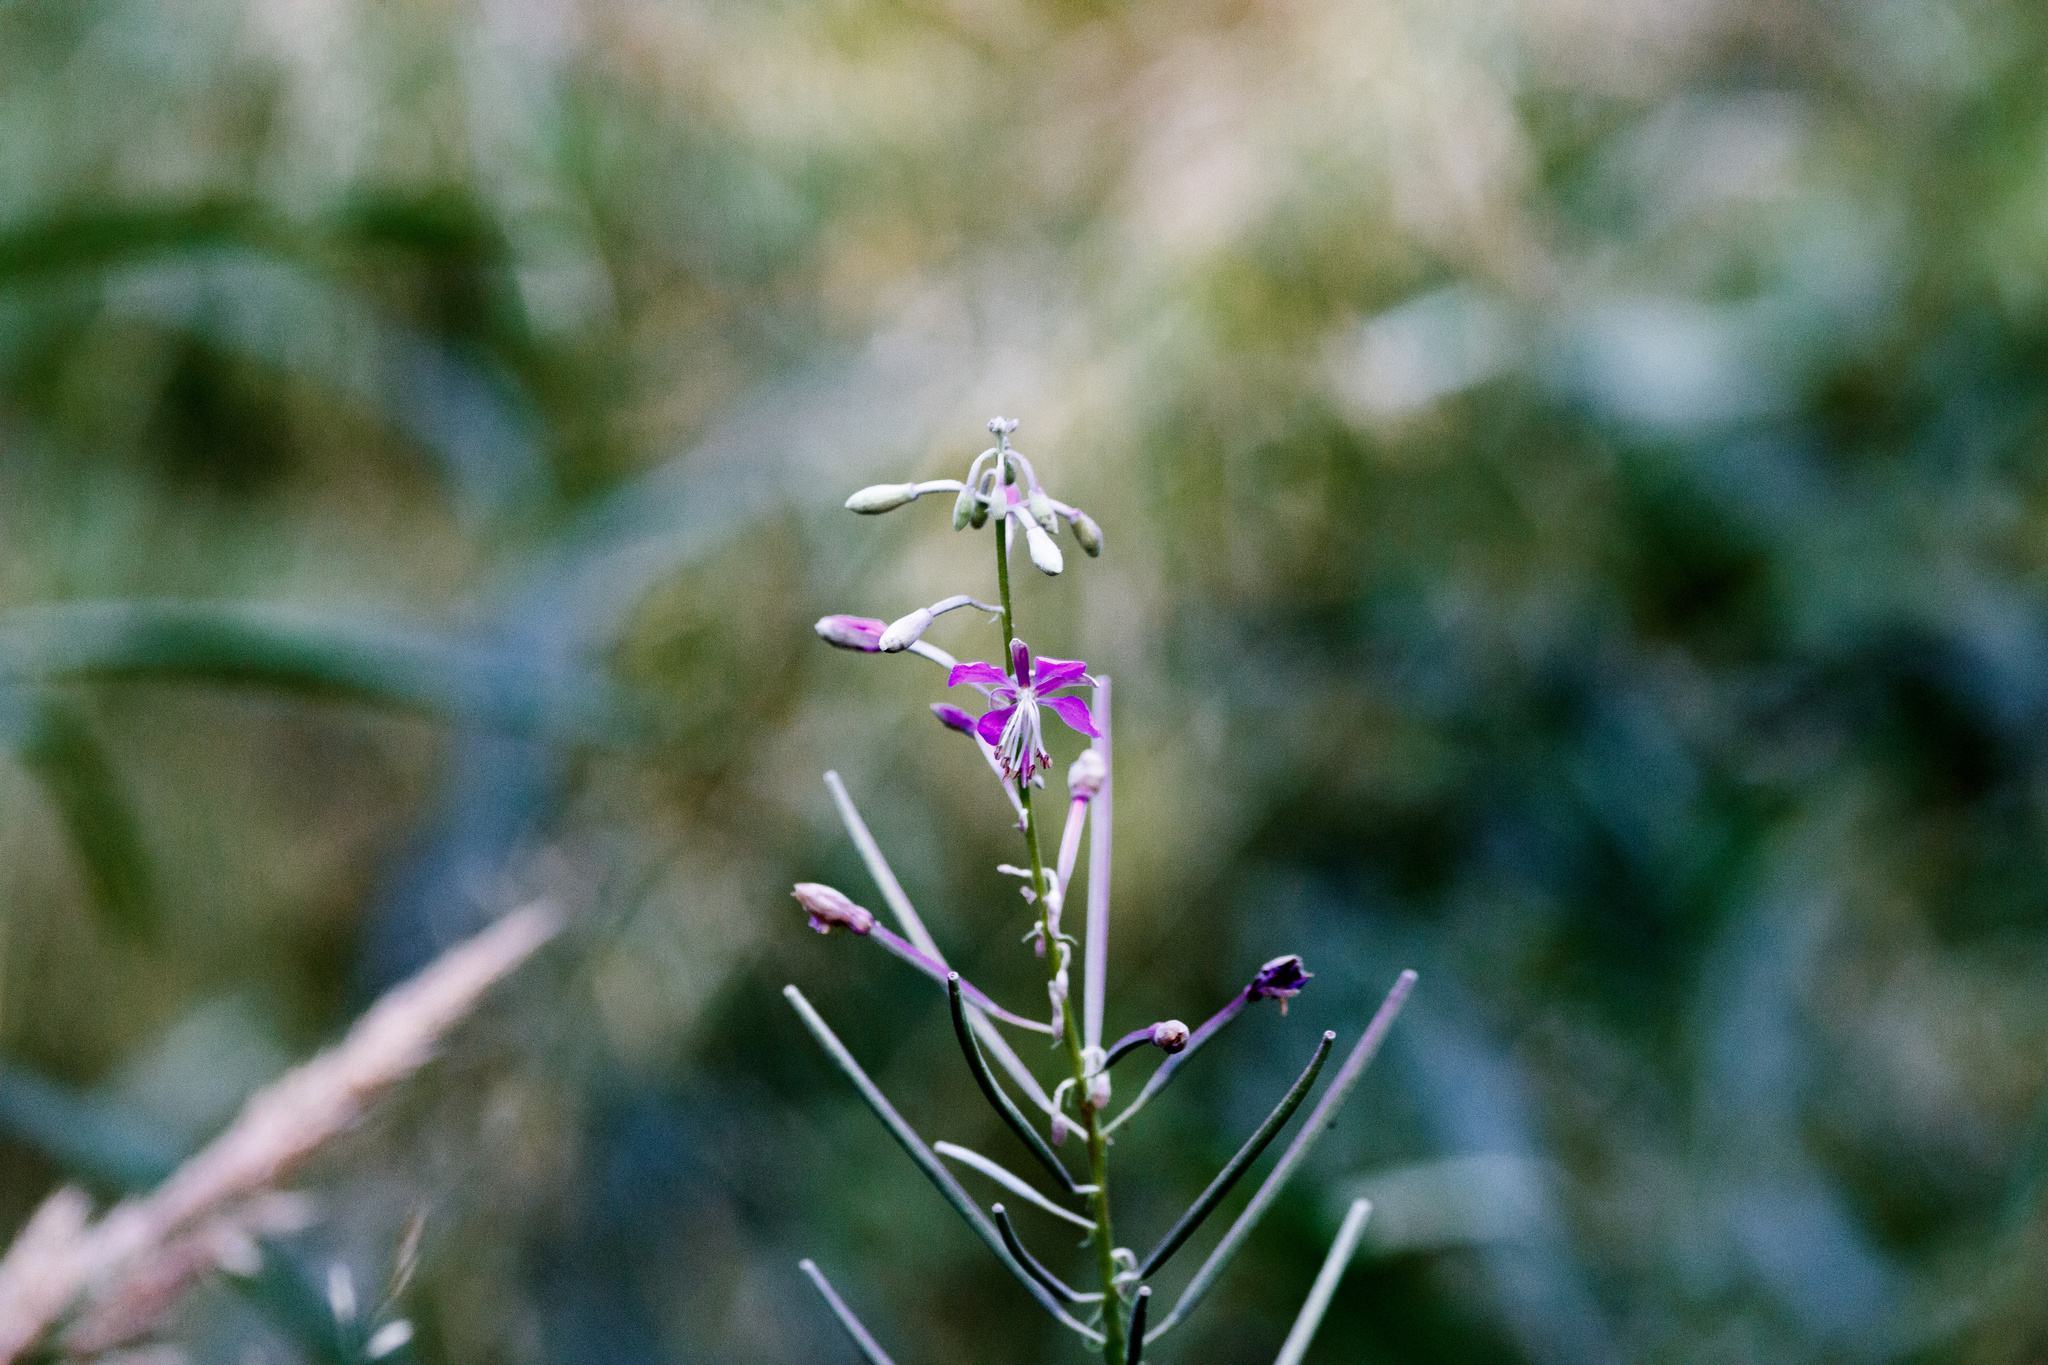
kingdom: Plantae
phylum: Tracheophyta
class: Magnoliopsida
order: Myrtales
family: Onagraceae
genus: Chamaenerion
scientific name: Chamaenerion angustifolium
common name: Fireweed
